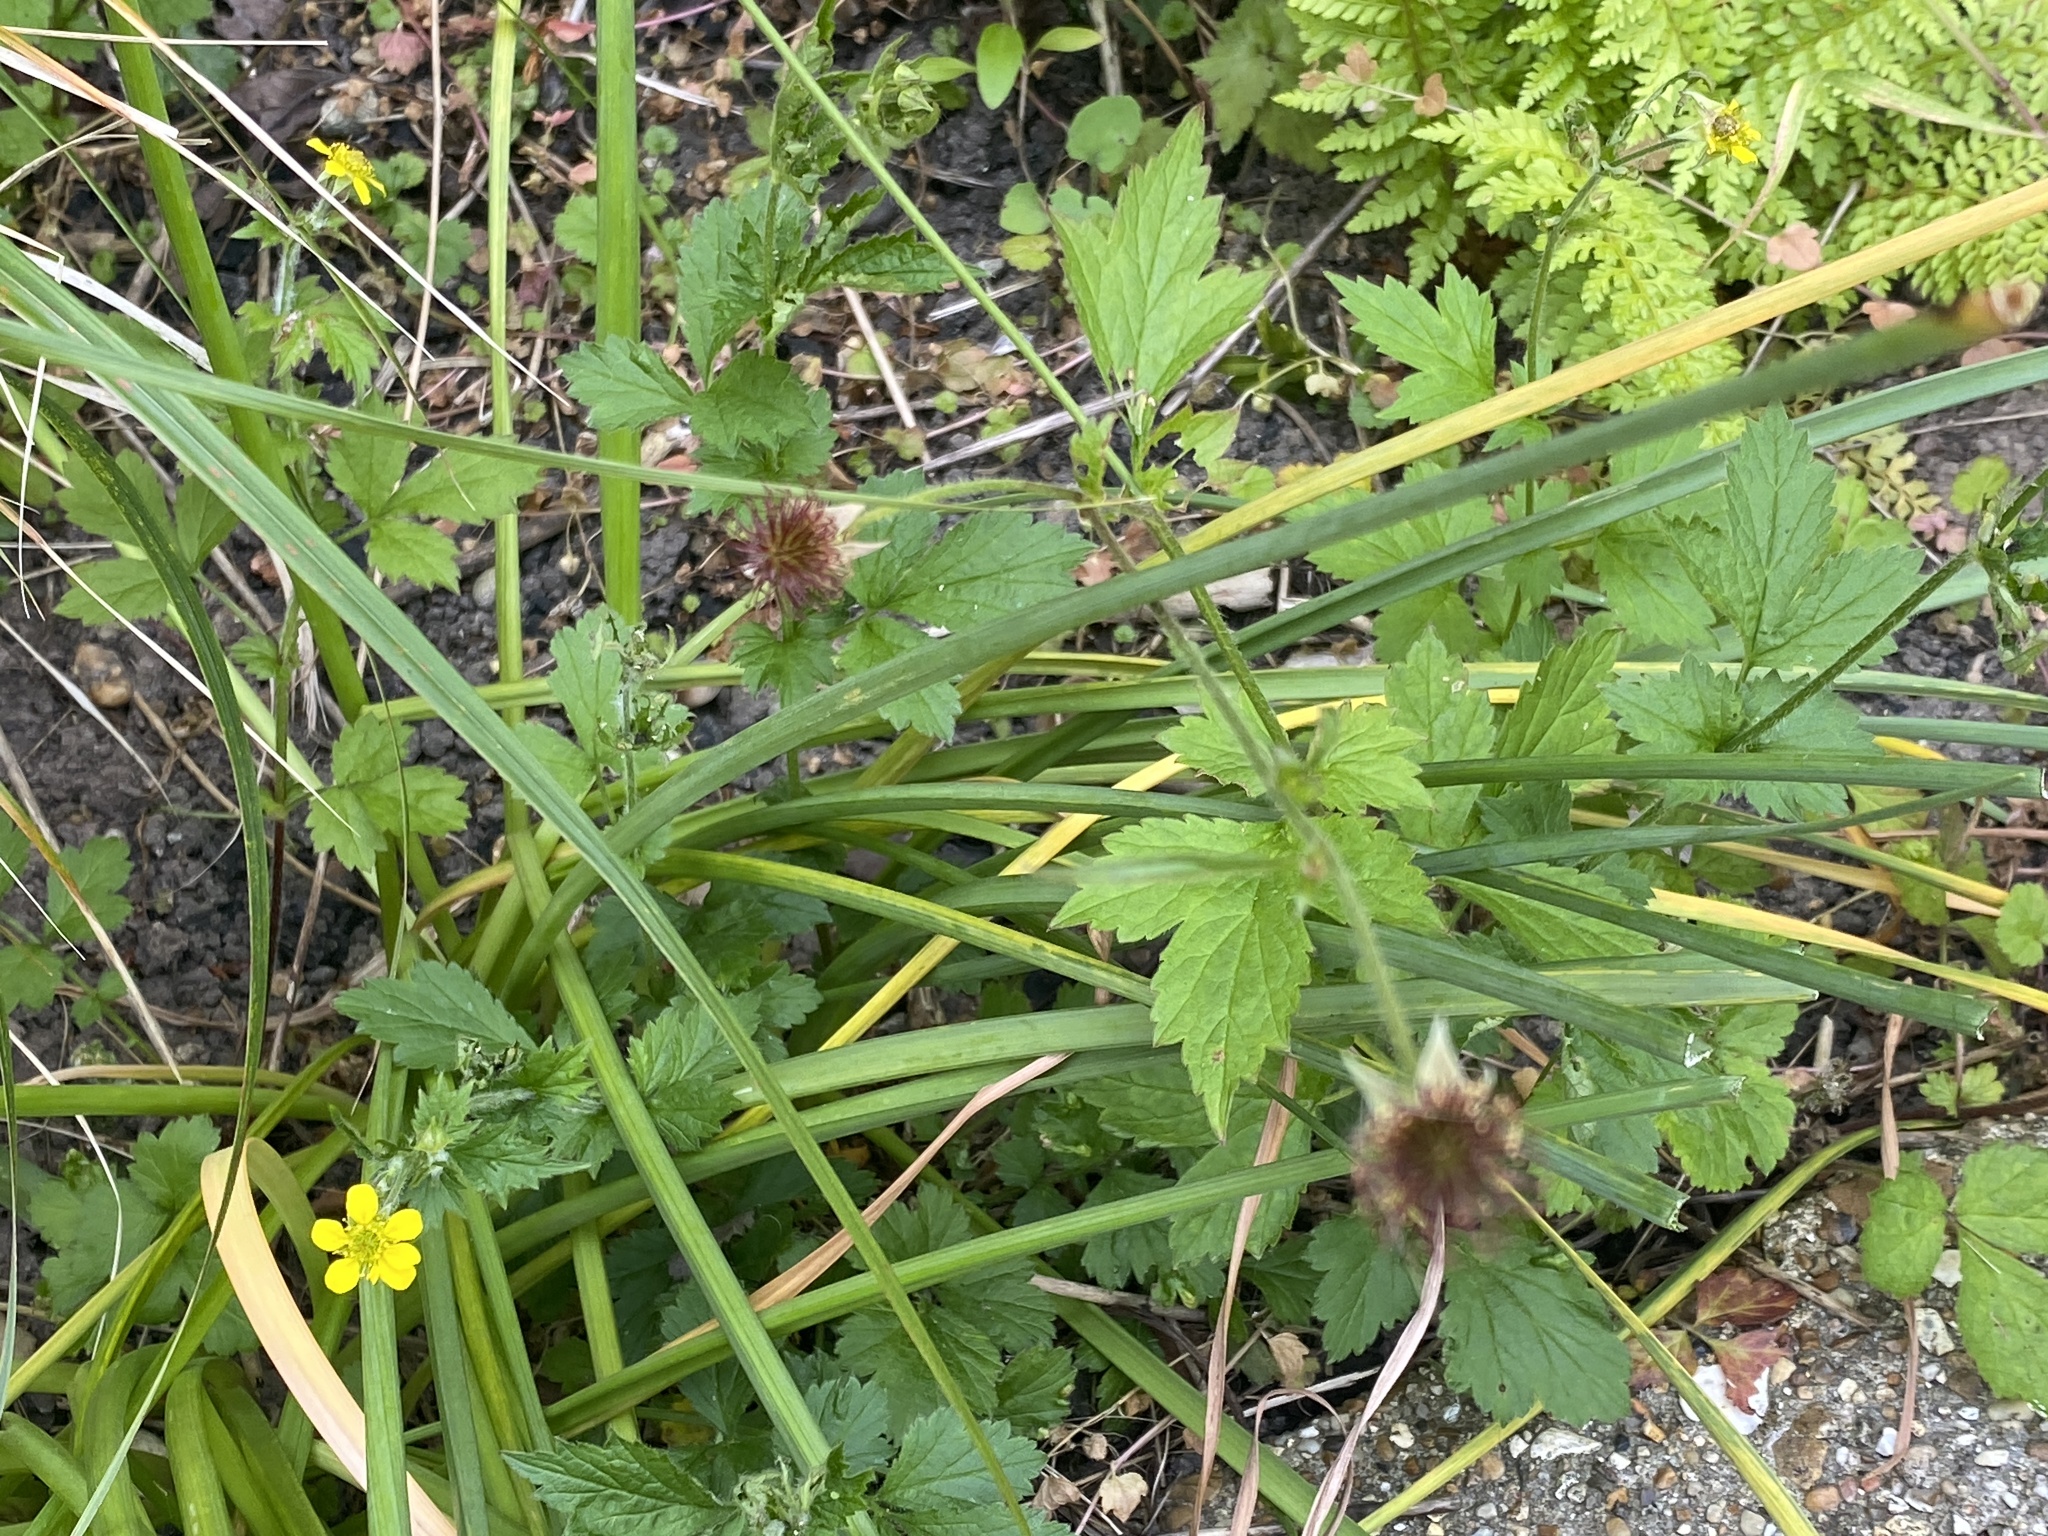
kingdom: Plantae
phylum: Tracheophyta
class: Magnoliopsida
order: Rosales
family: Rosaceae
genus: Geum
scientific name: Geum urbanum
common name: Wood avens
